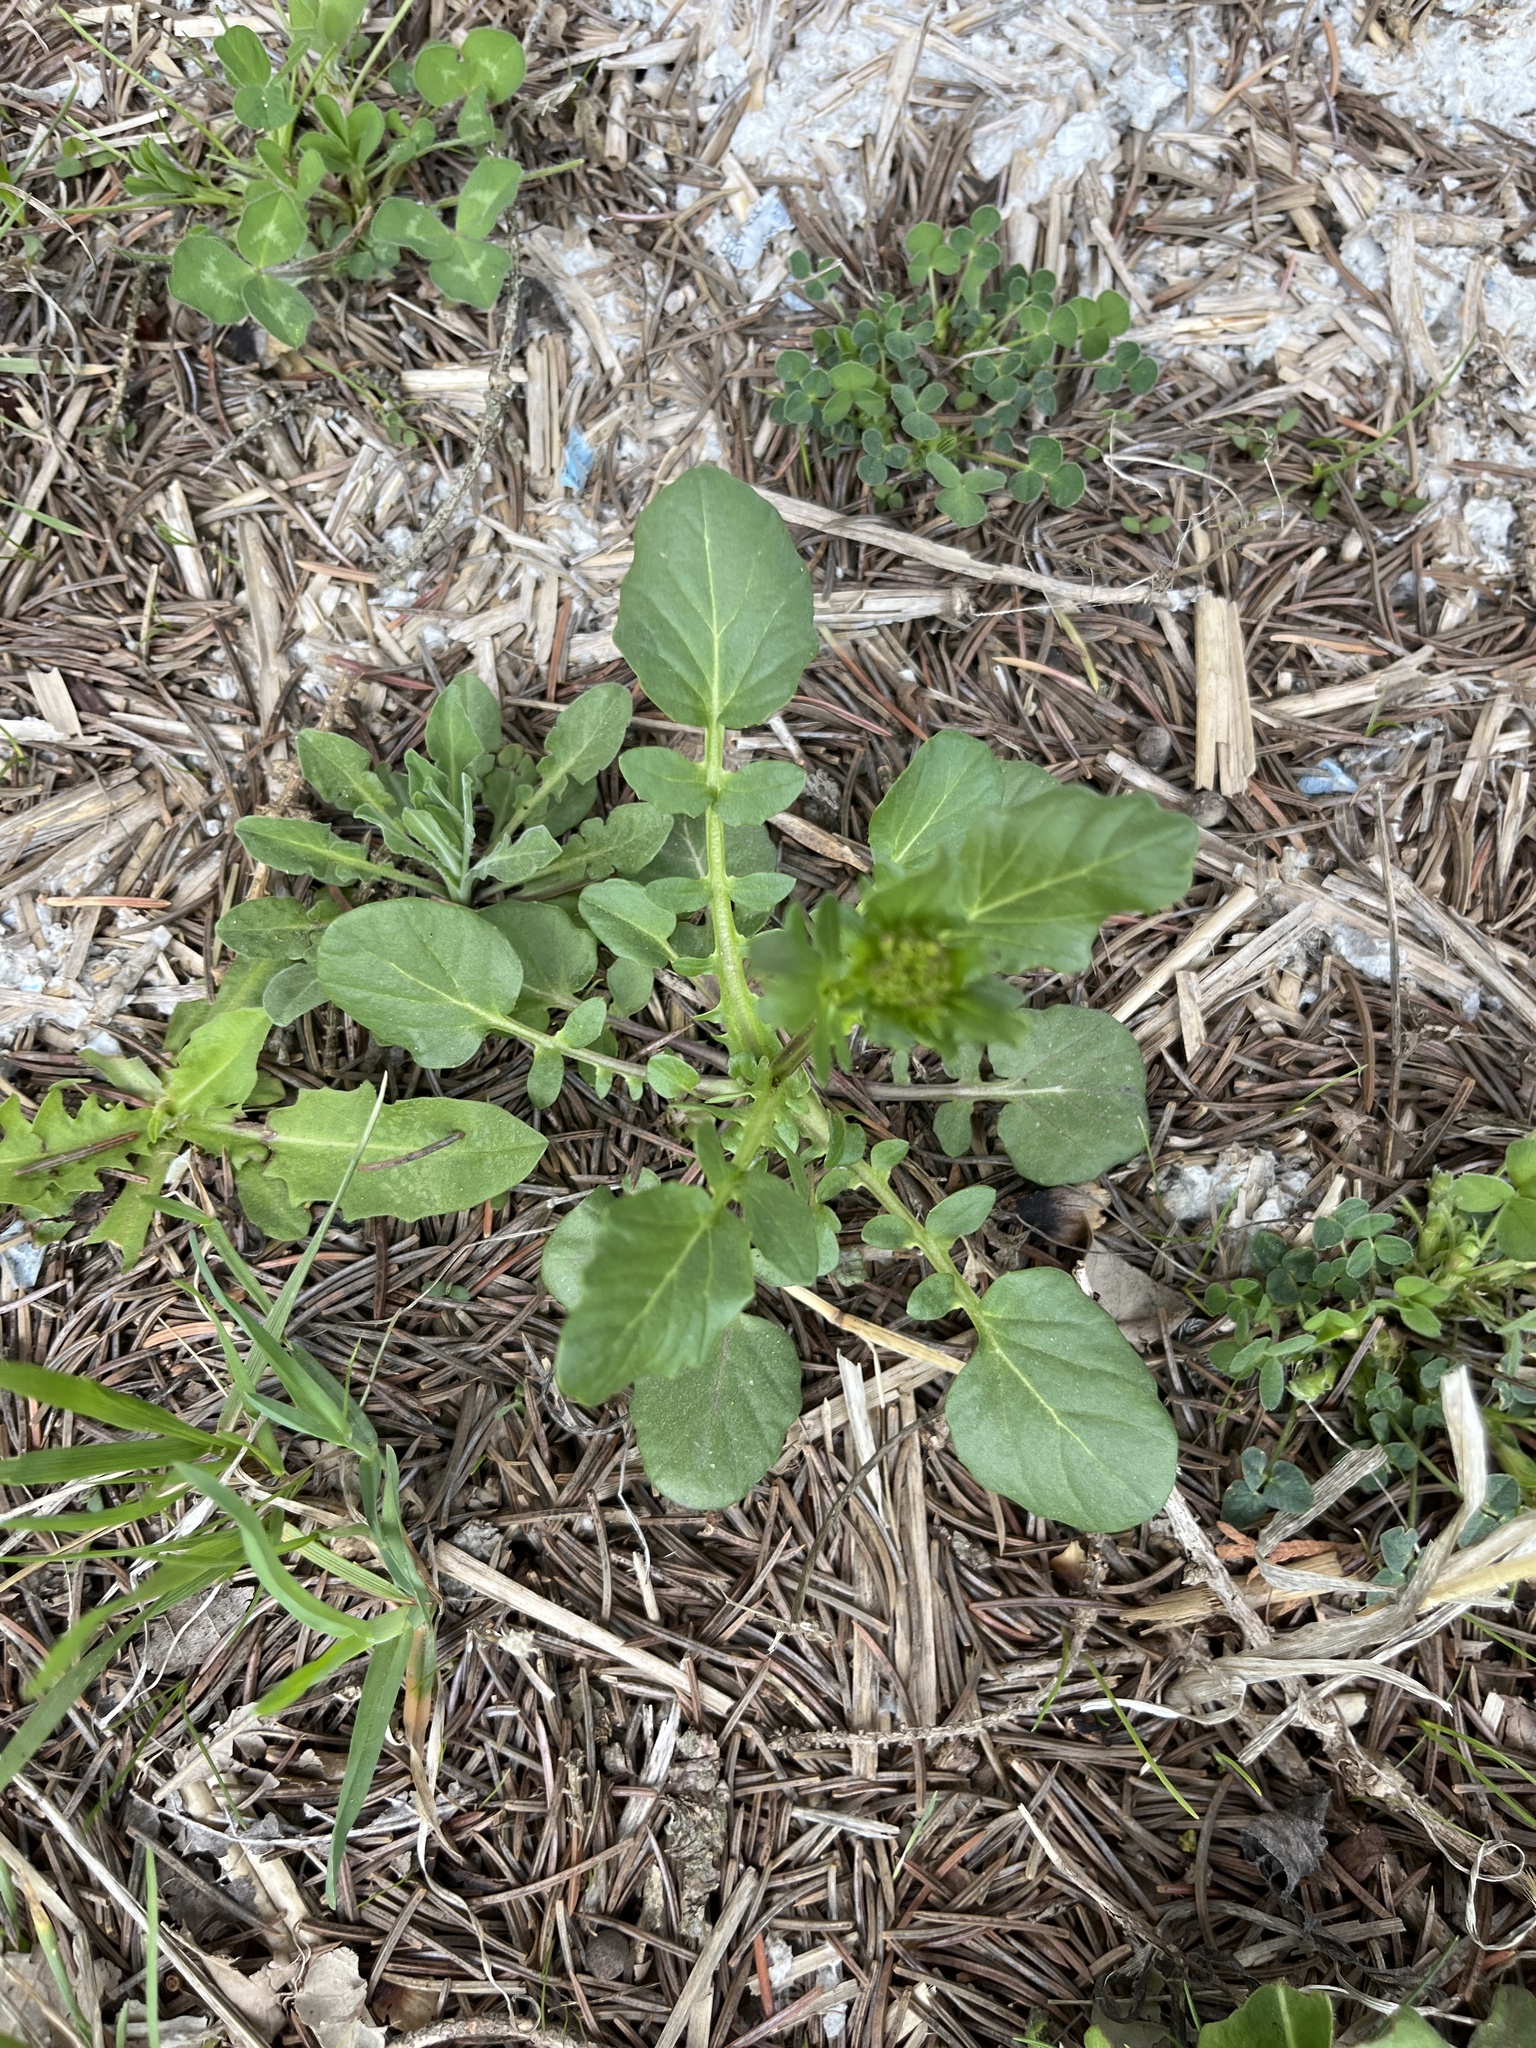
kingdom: Plantae
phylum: Tracheophyta
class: Magnoliopsida
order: Brassicales
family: Brassicaceae
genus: Barbarea
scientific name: Barbarea vulgaris
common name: Cressy-greens
